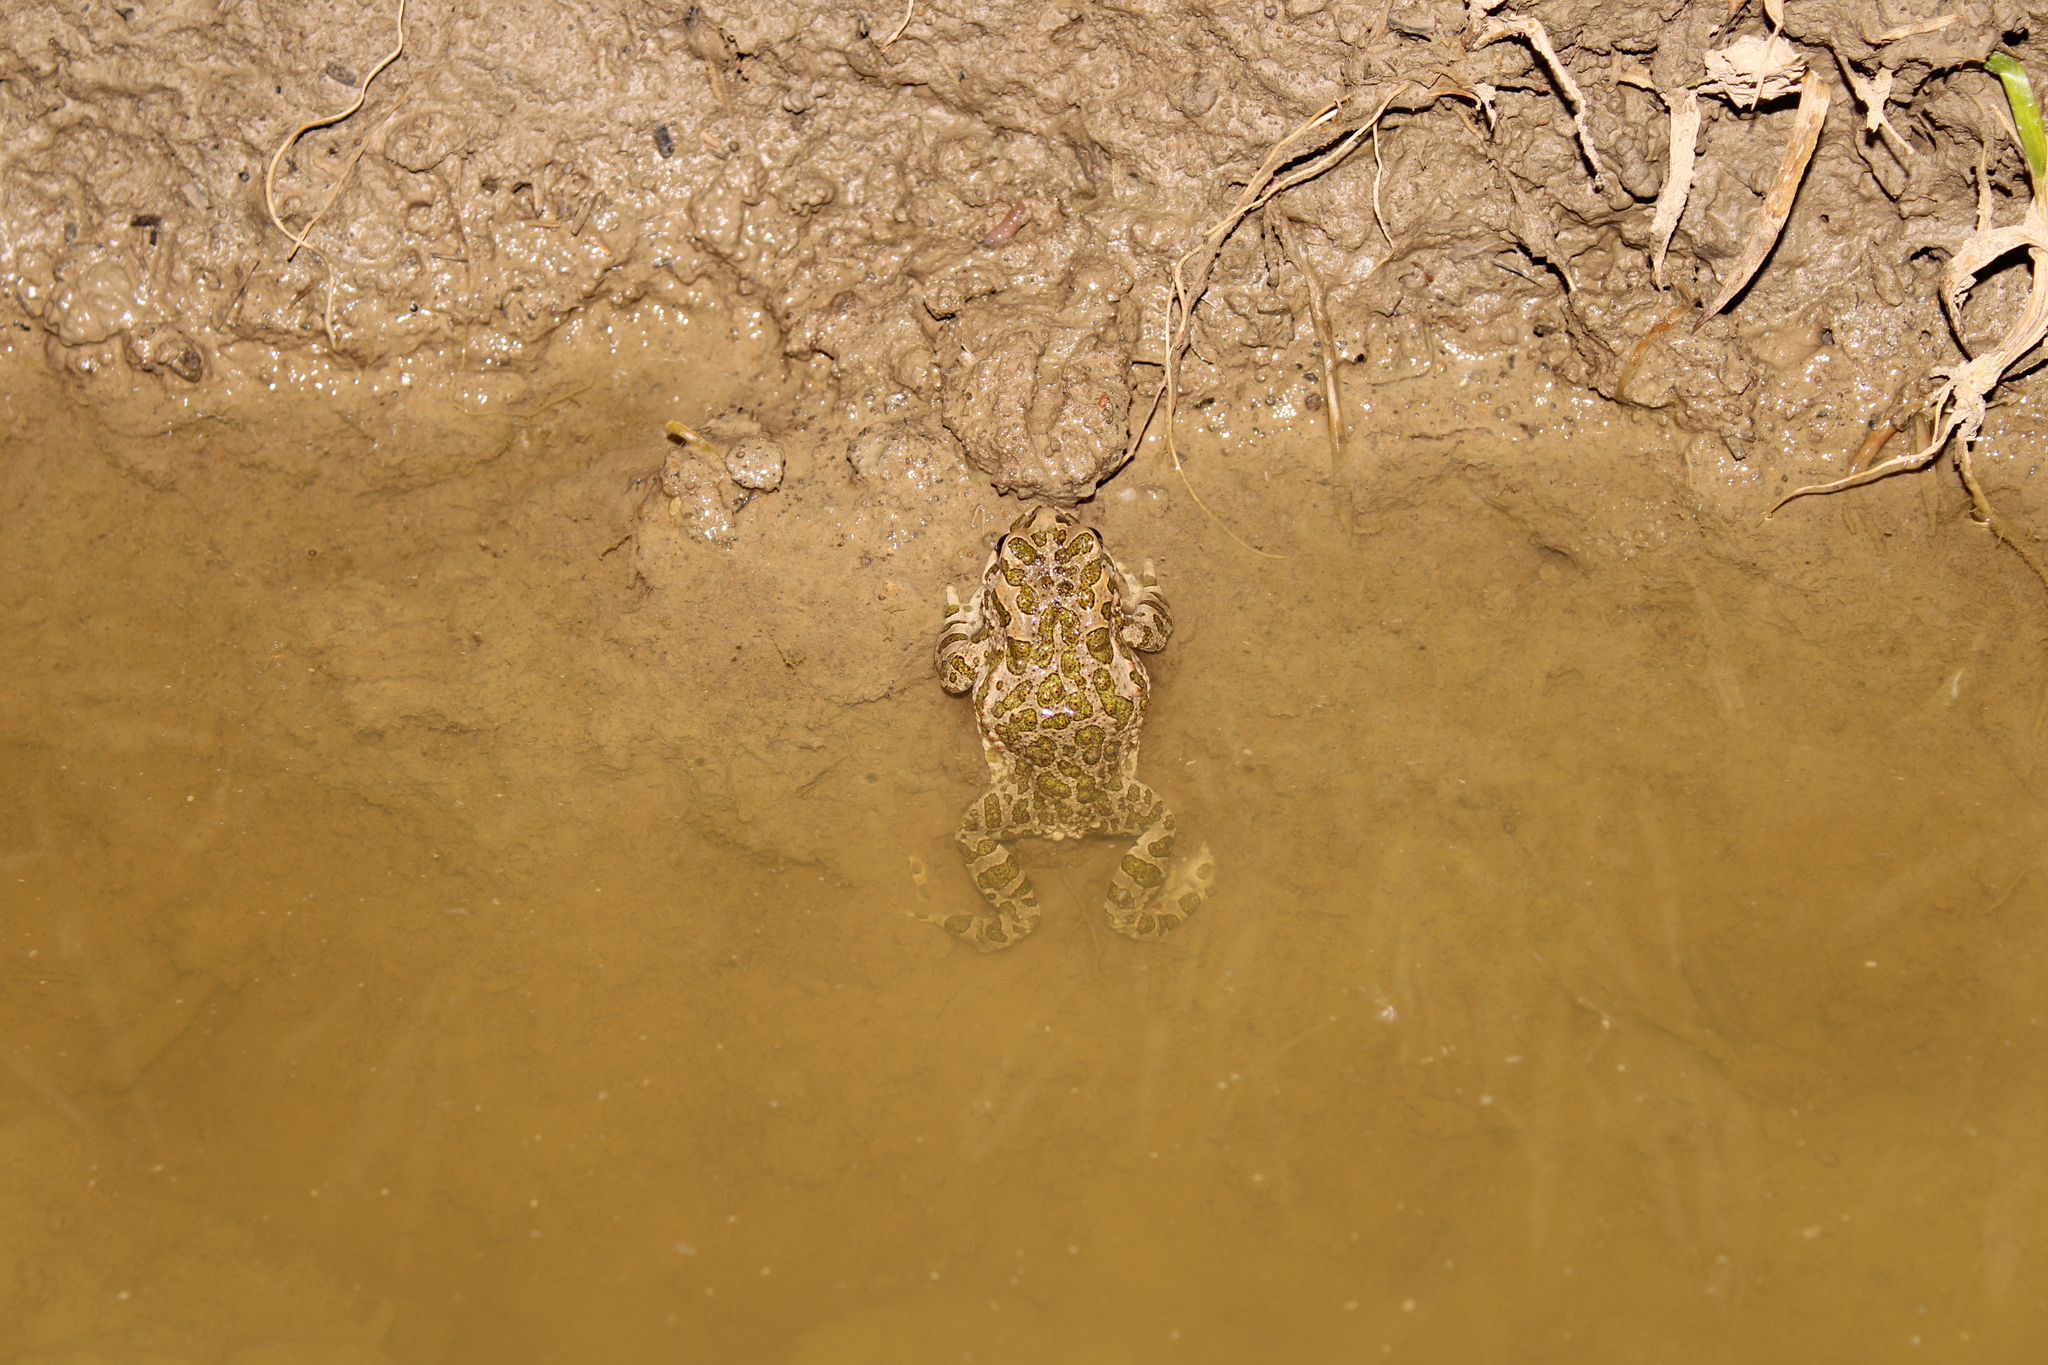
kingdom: Animalia
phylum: Chordata
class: Amphibia
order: Anura
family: Bufonidae
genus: Bufotes
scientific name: Bufotes viridis
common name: European green toad
